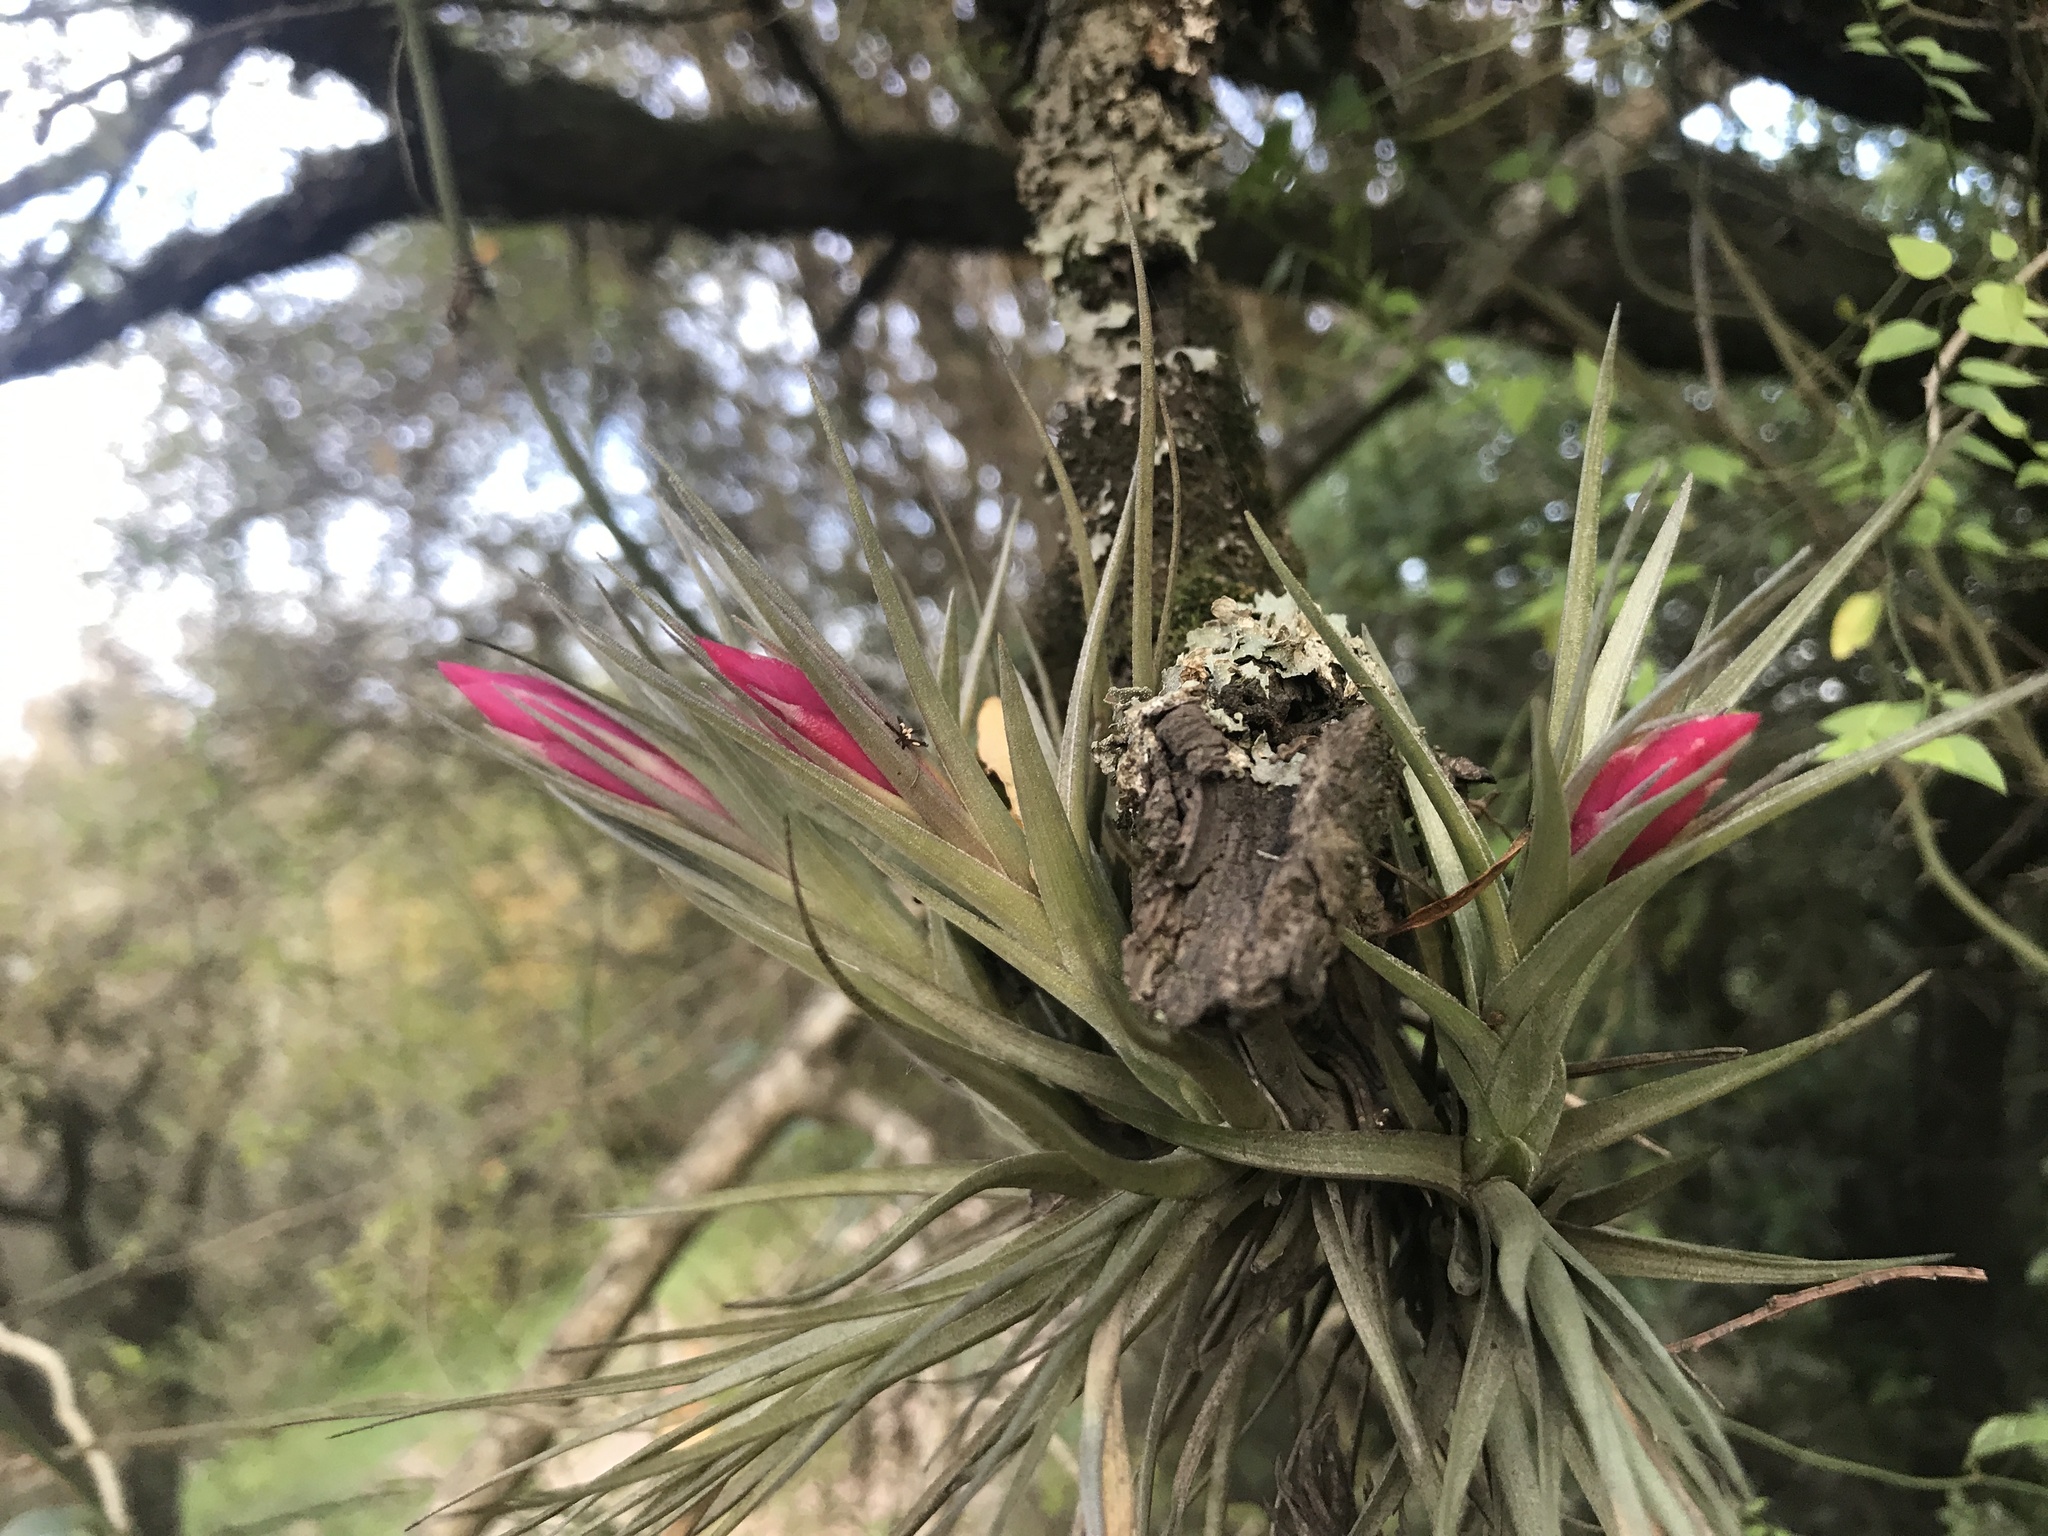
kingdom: Plantae
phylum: Tracheophyta
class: Liliopsida
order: Poales
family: Bromeliaceae
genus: Tillandsia
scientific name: Tillandsia aeranthos
